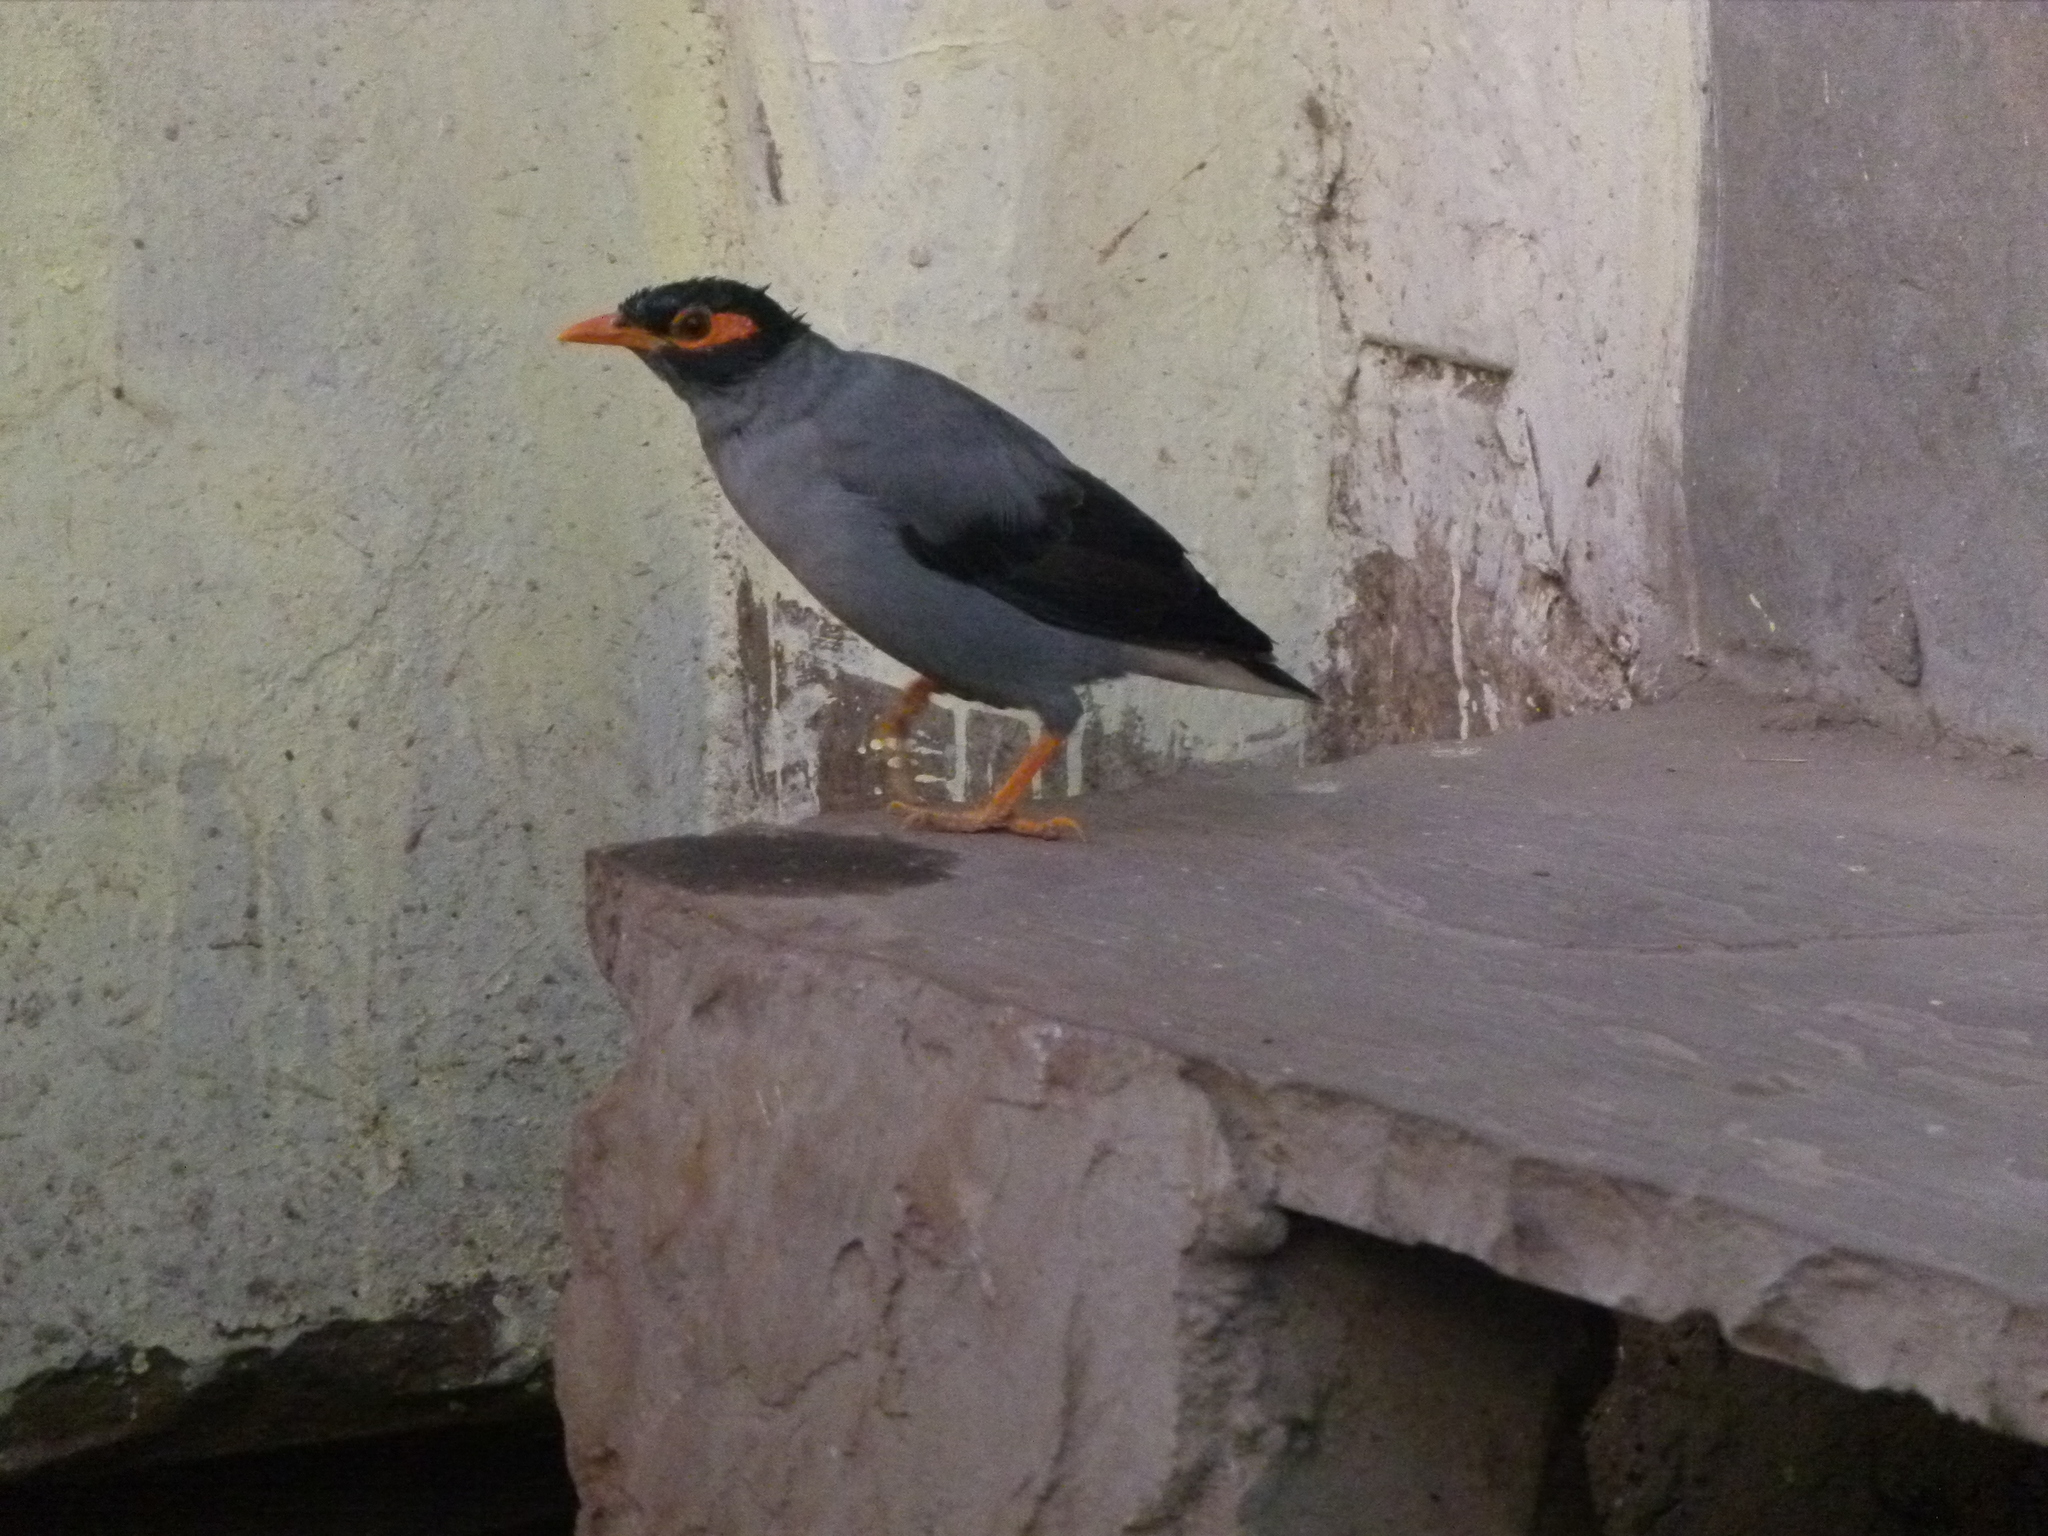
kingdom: Animalia
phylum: Chordata
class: Aves
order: Passeriformes
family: Sturnidae
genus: Acridotheres
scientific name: Acridotheres ginginianus
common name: Bank myna
